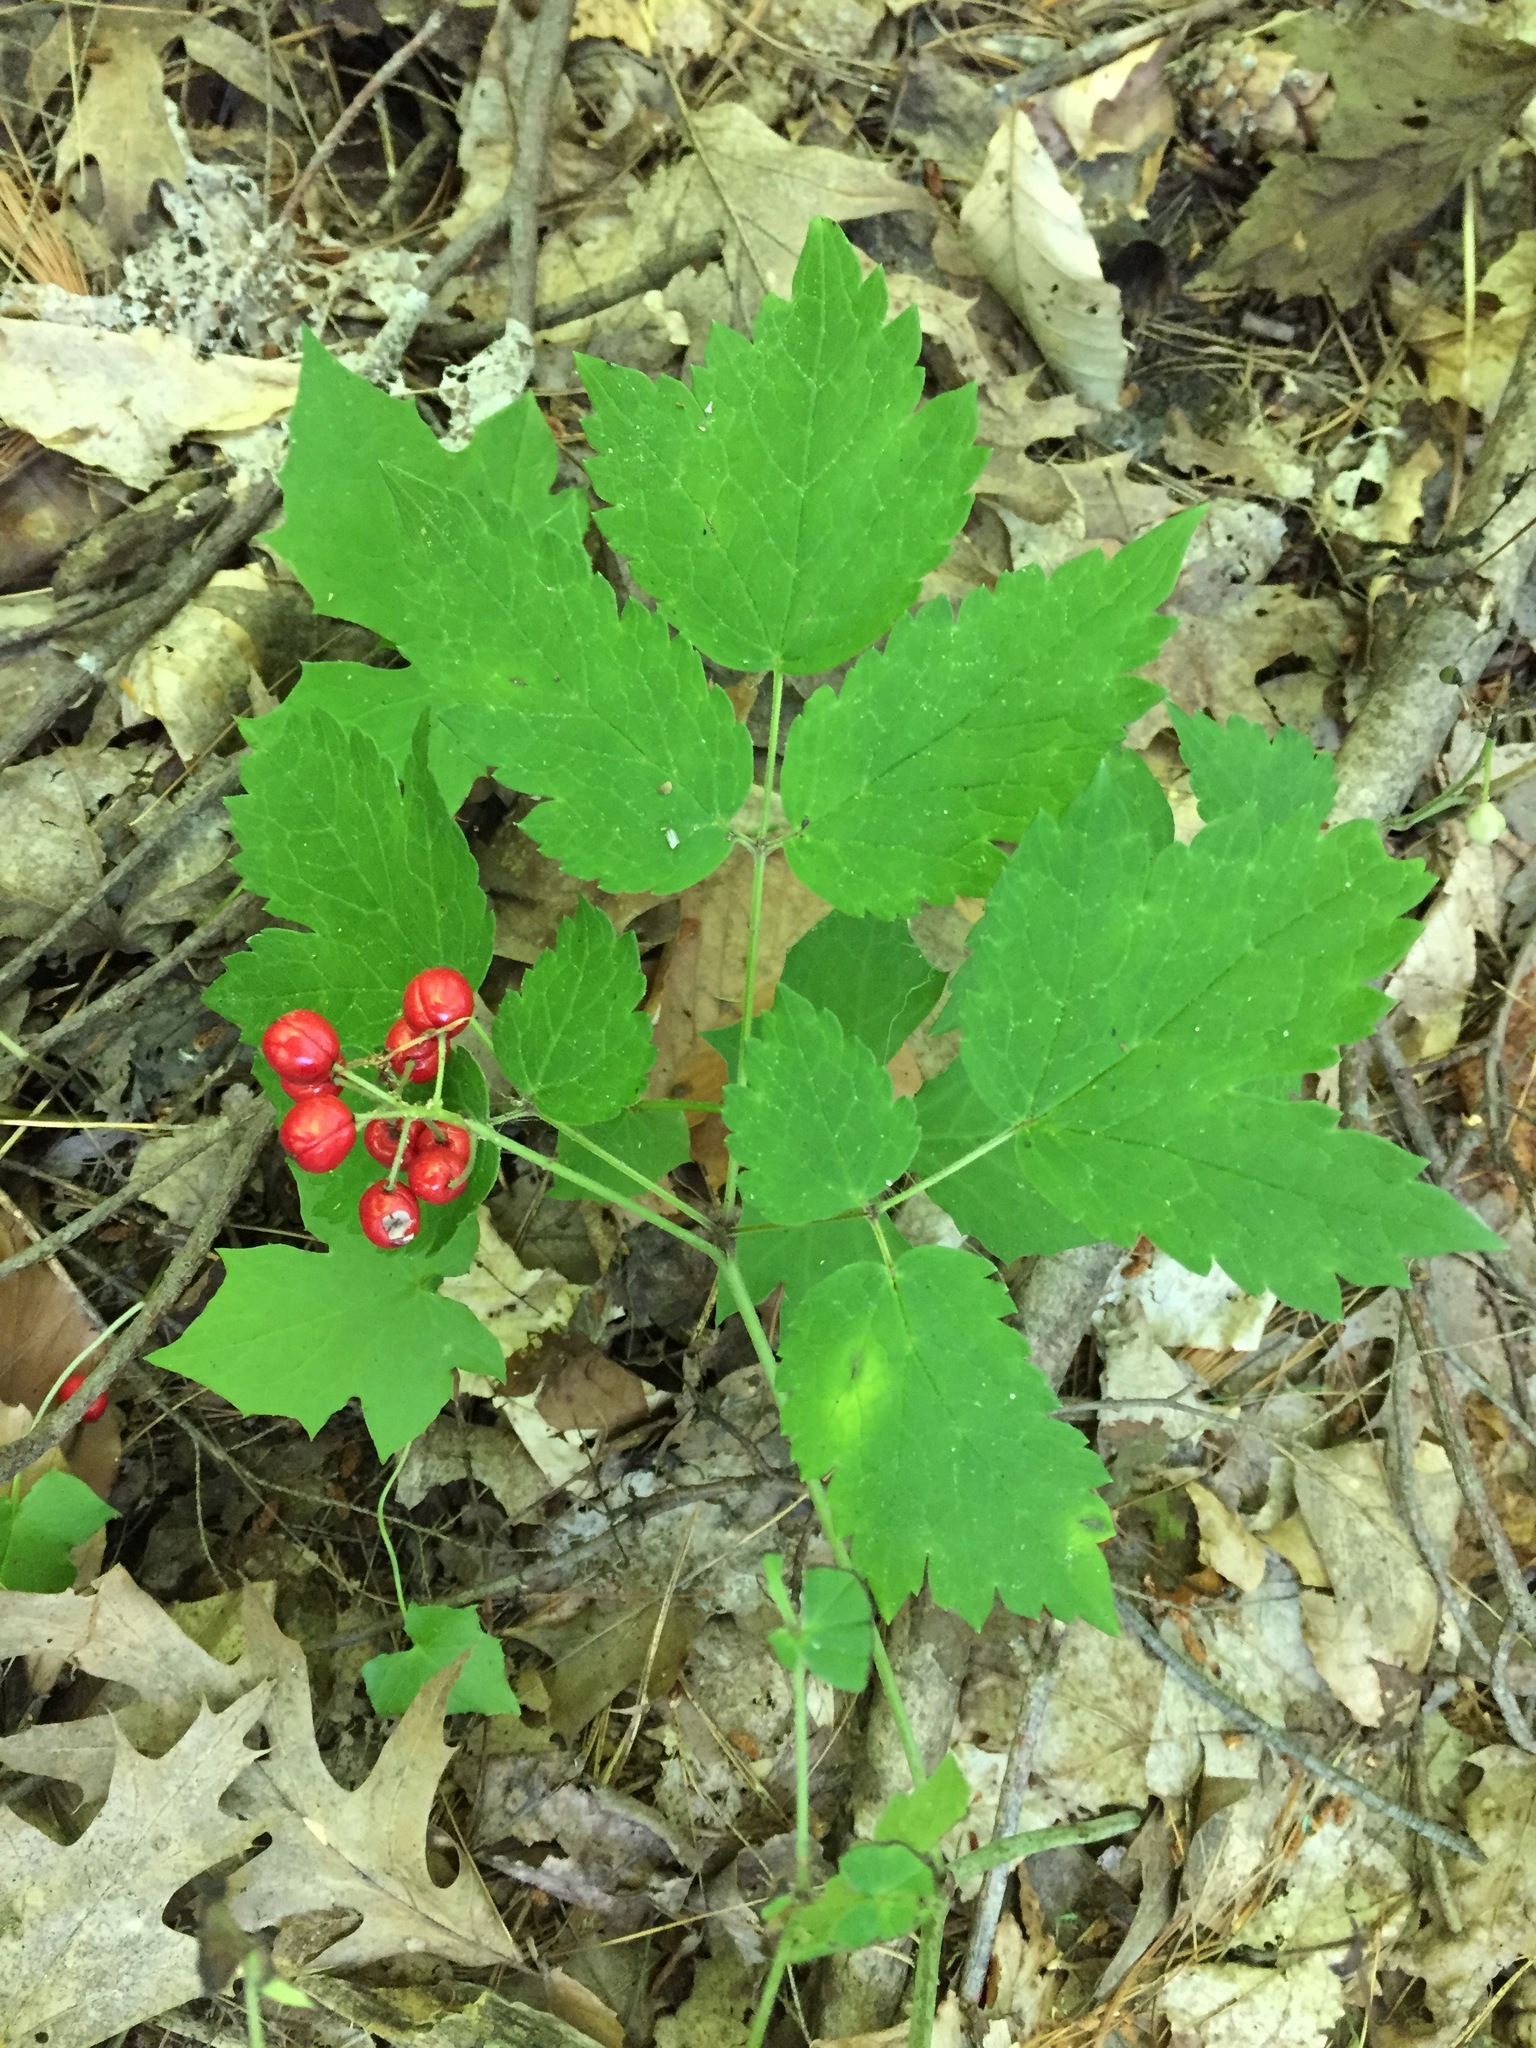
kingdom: Plantae
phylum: Tracheophyta
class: Magnoliopsida
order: Ranunculales
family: Ranunculaceae
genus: Actaea
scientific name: Actaea rubra
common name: Red baneberry
